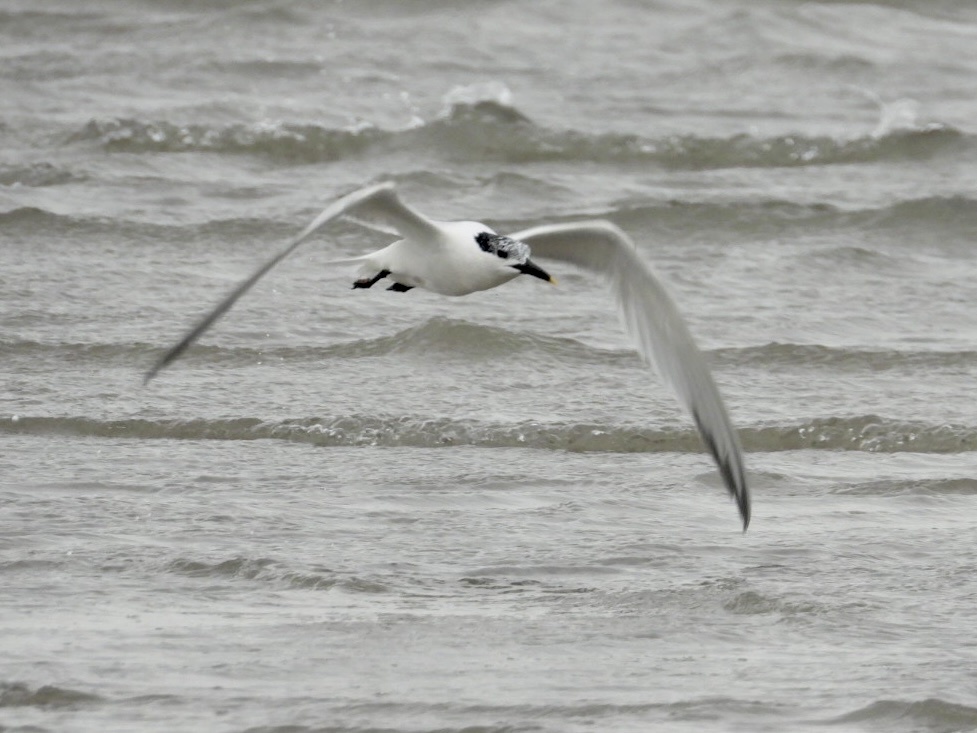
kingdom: Animalia
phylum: Chordata
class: Aves
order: Charadriiformes
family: Laridae
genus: Thalasseus
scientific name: Thalasseus sandvicensis
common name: Sandwich tern
